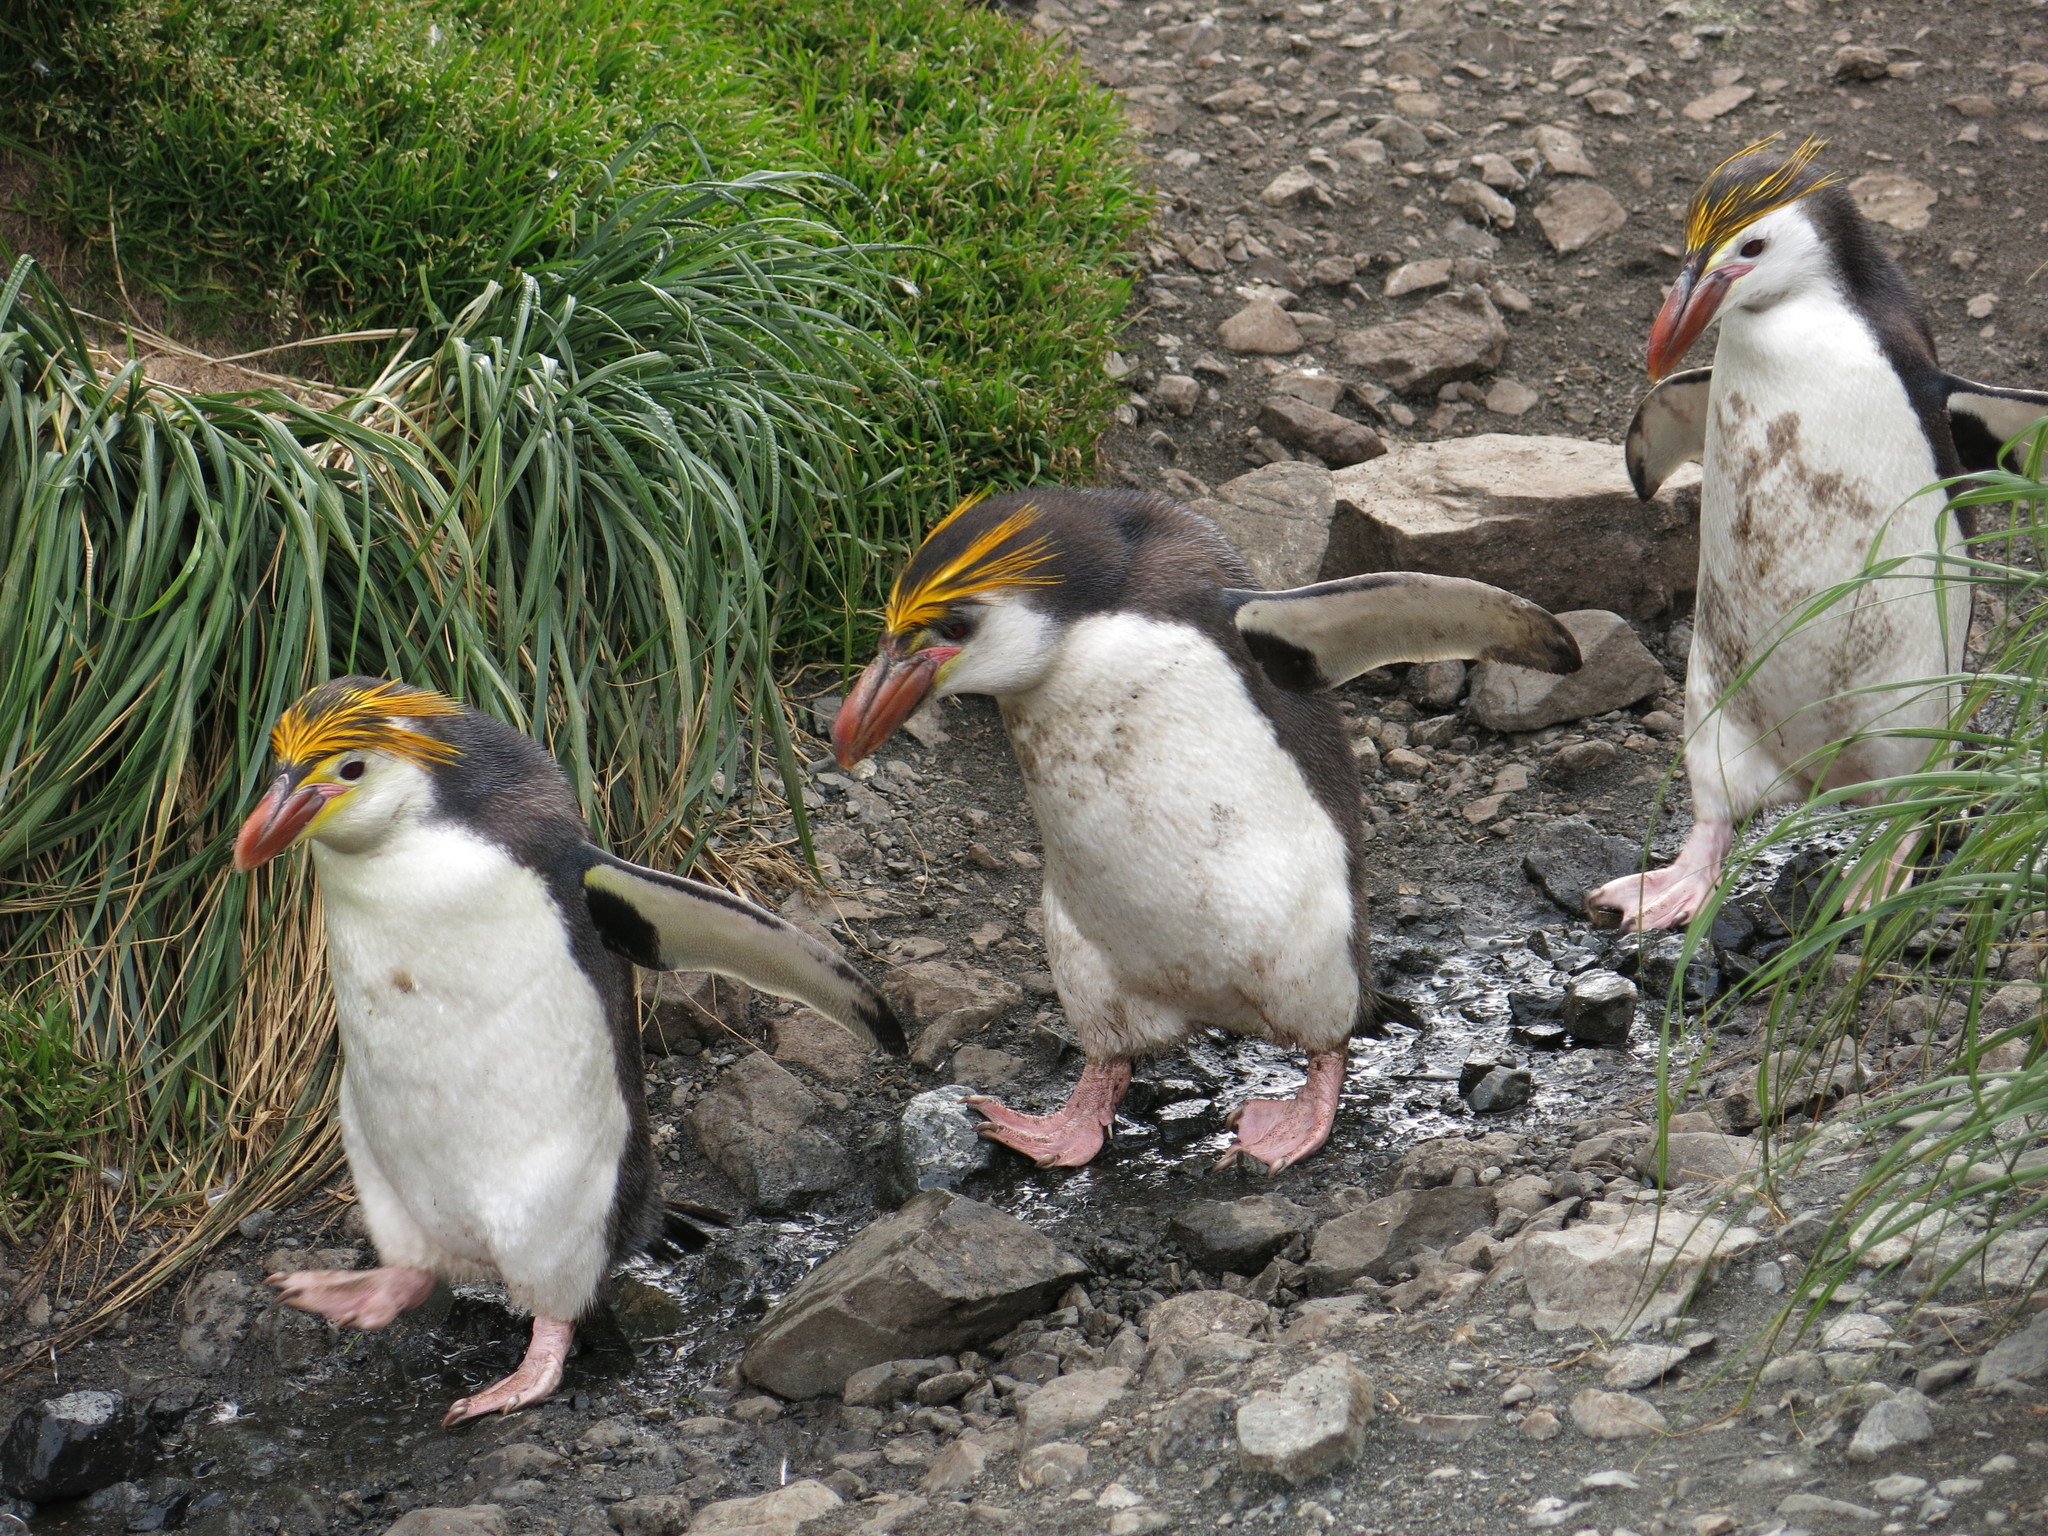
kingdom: Animalia
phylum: Chordata
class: Aves
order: Sphenisciformes
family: Spheniscidae
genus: Eudyptes
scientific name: Eudyptes schlegeli
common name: Royal penguin
